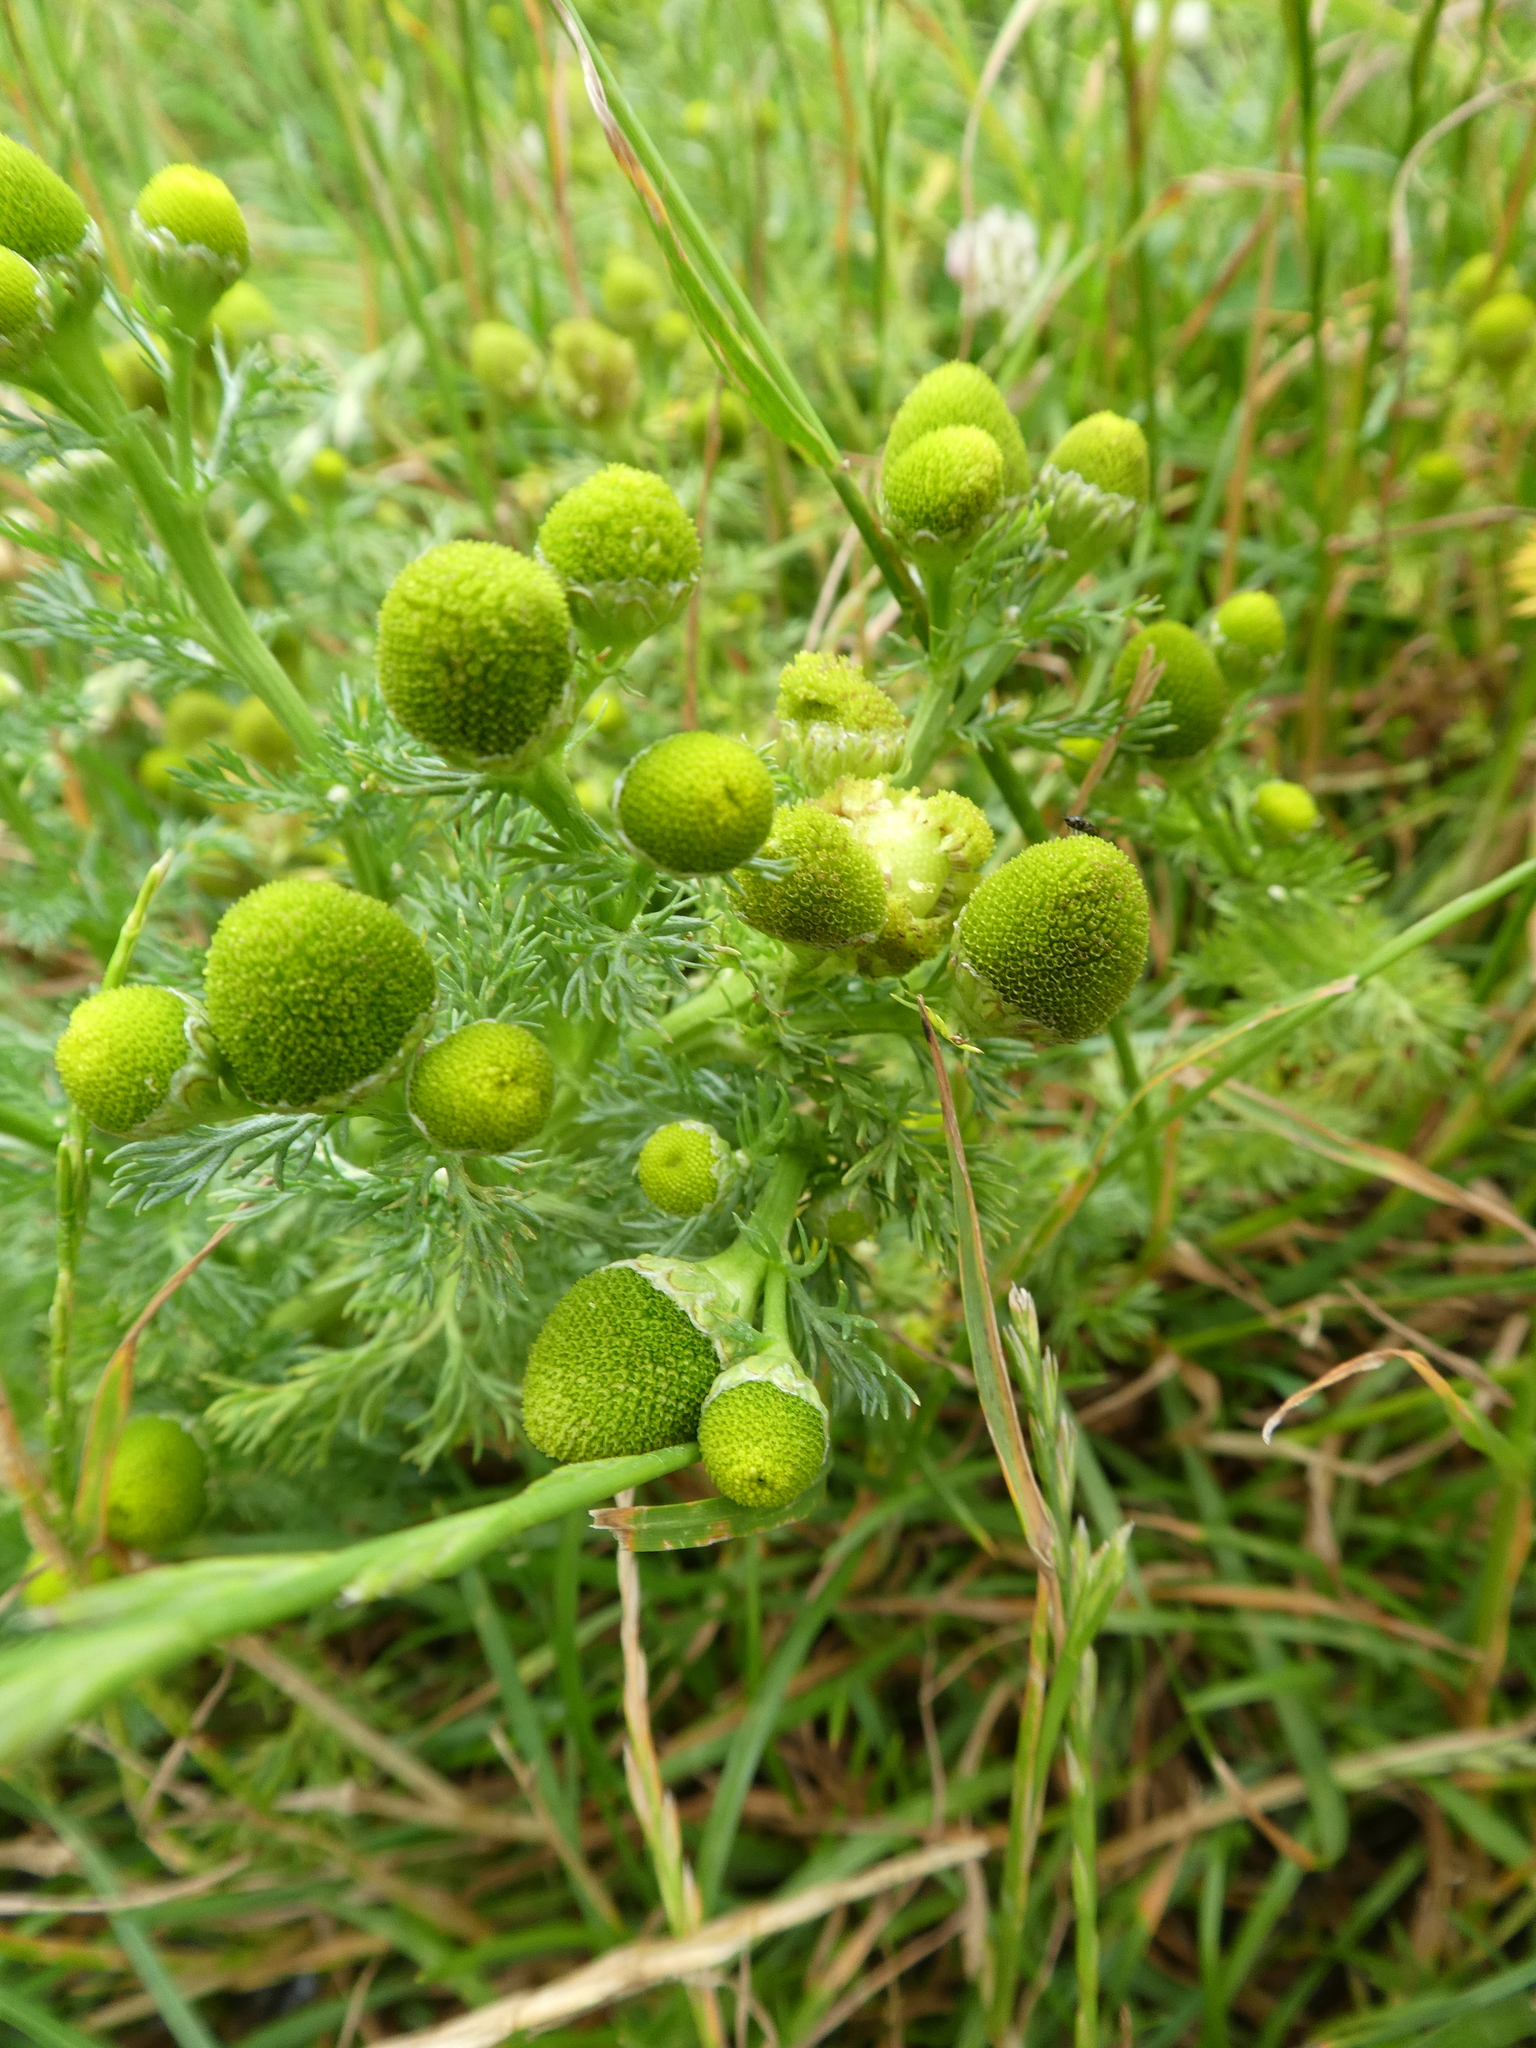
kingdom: Plantae
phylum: Tracheophyta
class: Magnoliopsida
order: Asterales
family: Asteraceae
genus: Matricaria
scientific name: Matricaria discoidea
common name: Disc mayweed
